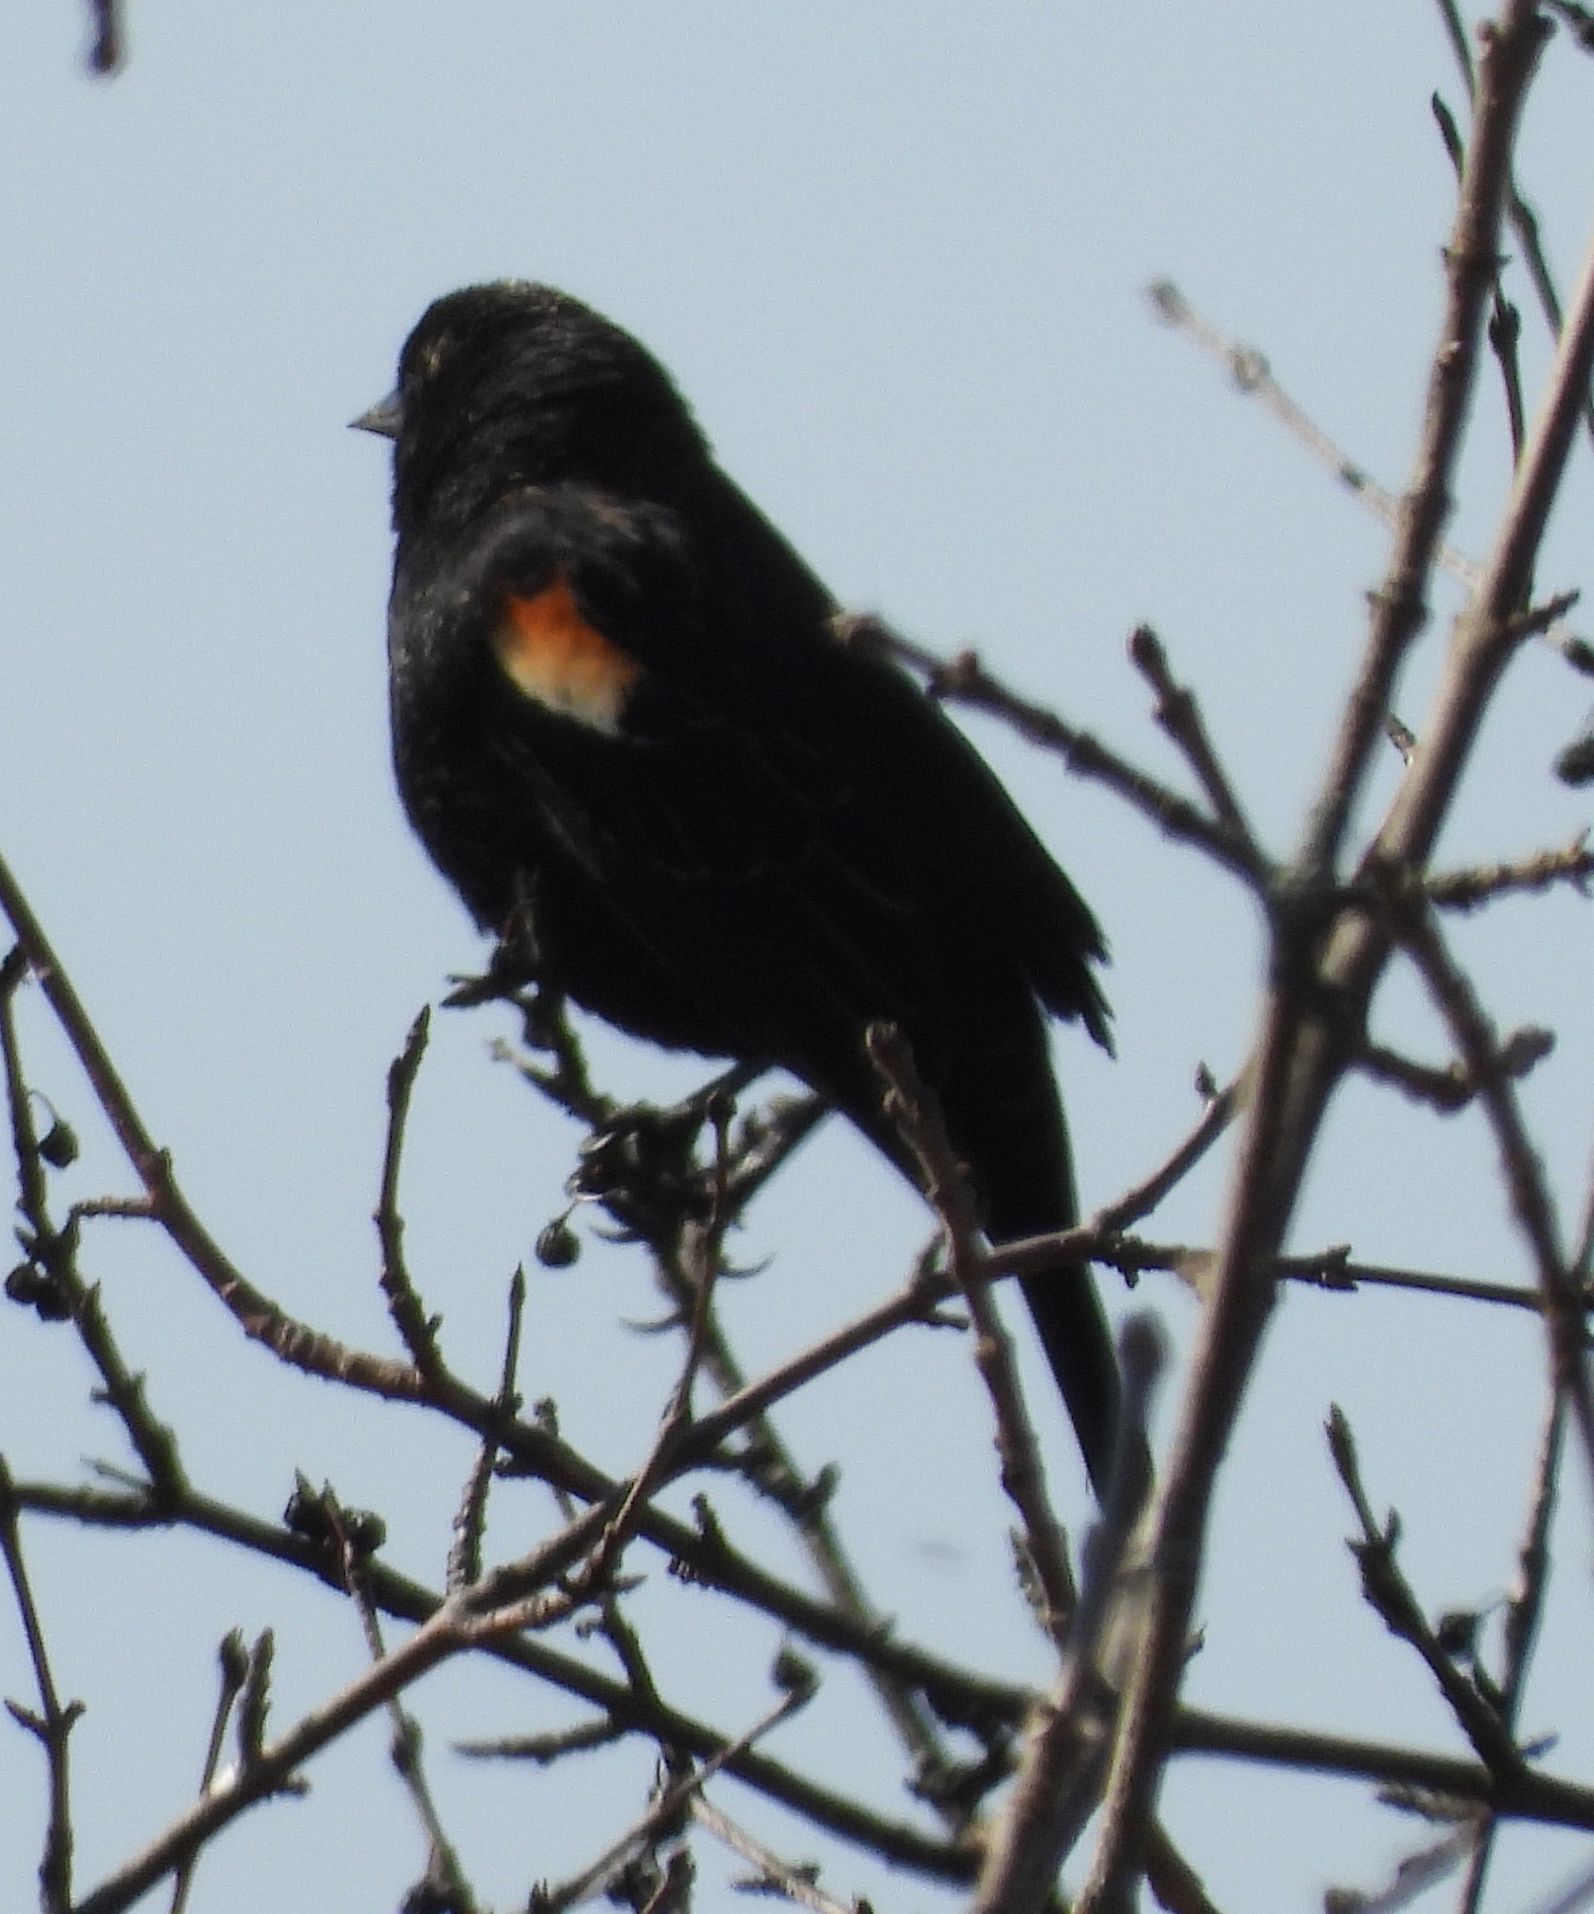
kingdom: Animalia
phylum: Chordata
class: Aves
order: Passeriformes
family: Icteridae
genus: Agelaius
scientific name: Agelaius phoeniceus
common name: Red-winged blackbird
